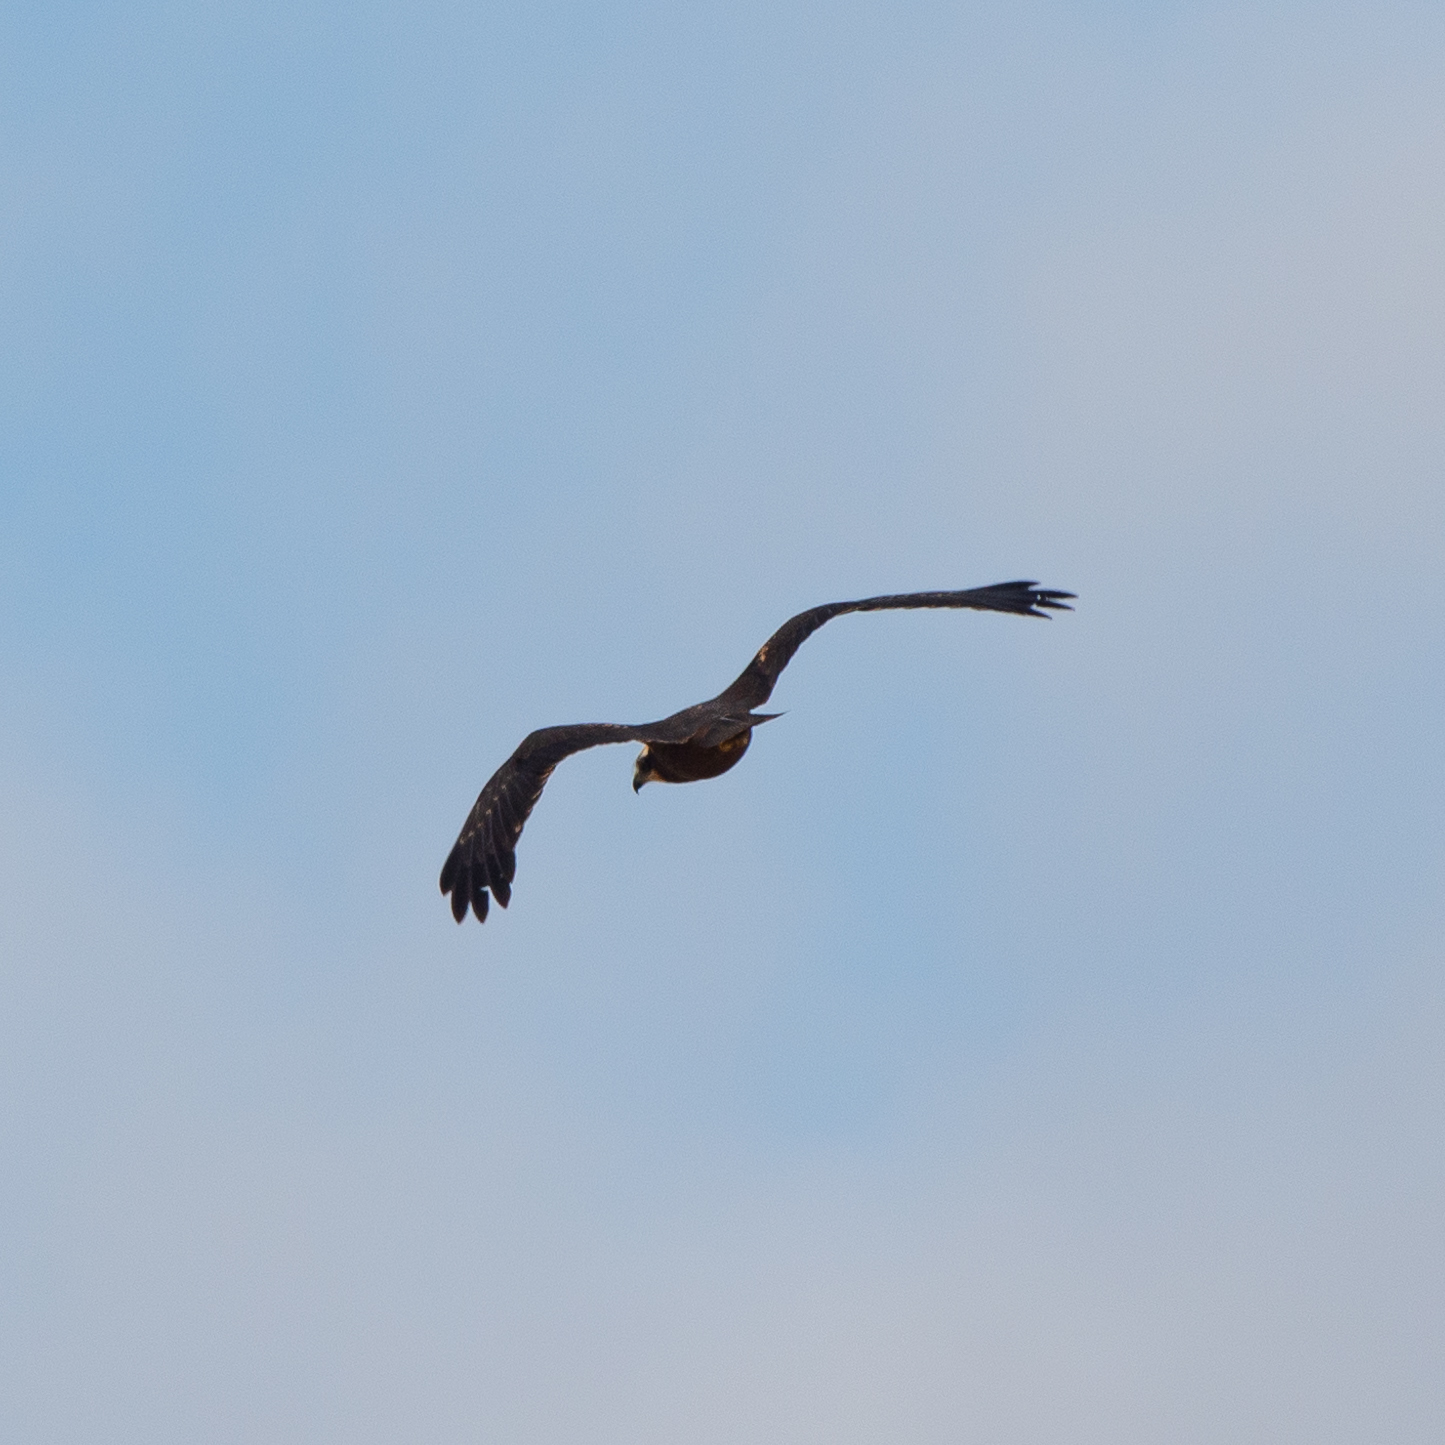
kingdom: Animalia
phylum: Chordata
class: Aves
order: Accipitriformes
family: Accipitridae
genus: Circus
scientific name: Circus aeruginosus
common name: Western marsh harrier
